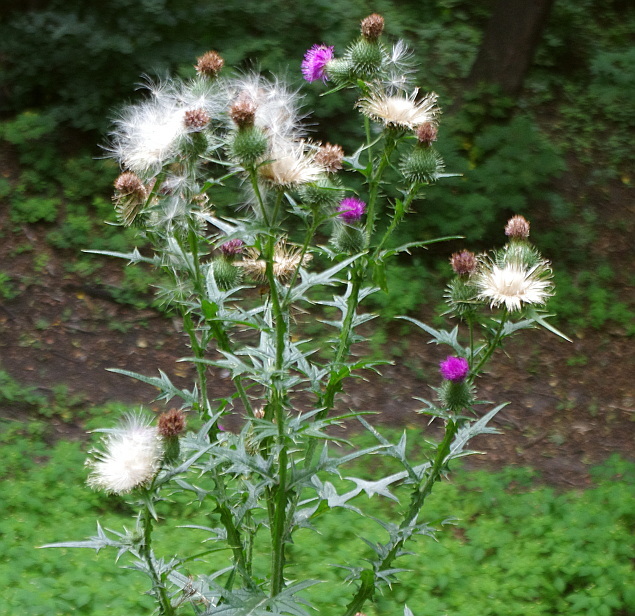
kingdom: Plantae
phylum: Tracheophyta
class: Magnoliopsida
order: Asterales
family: Asteraceae
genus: Cirsium
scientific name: Cirsium vulgare
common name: Bull thistle
